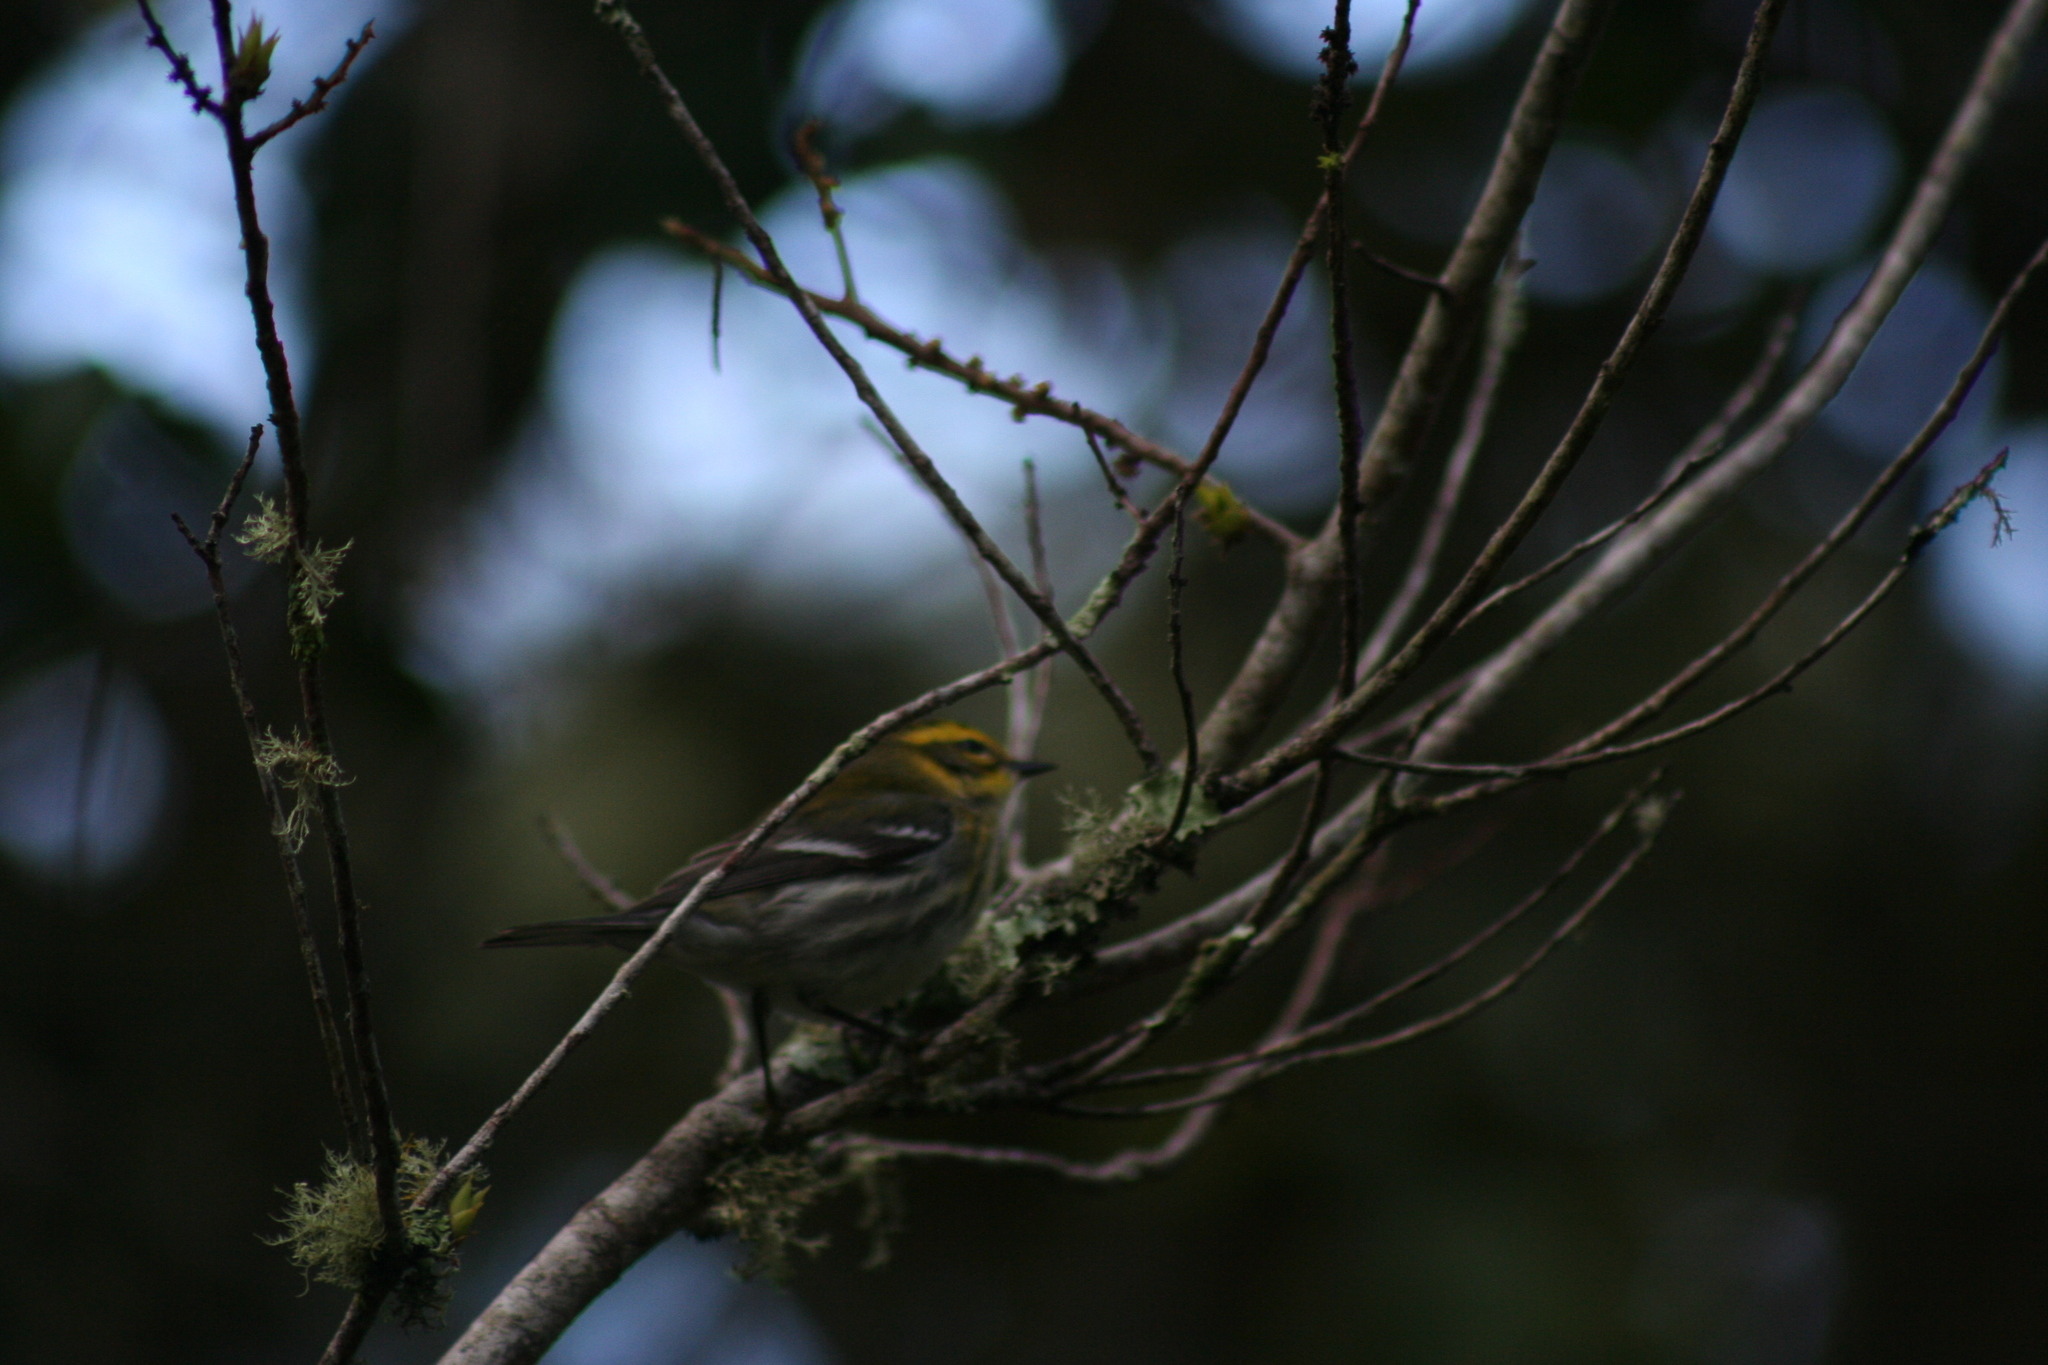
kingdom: Animalia
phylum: Chordata
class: Aves
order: Passeriformes
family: Parulidae
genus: Setophaga
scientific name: Setophaga townsendi
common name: Townsend's warbler
